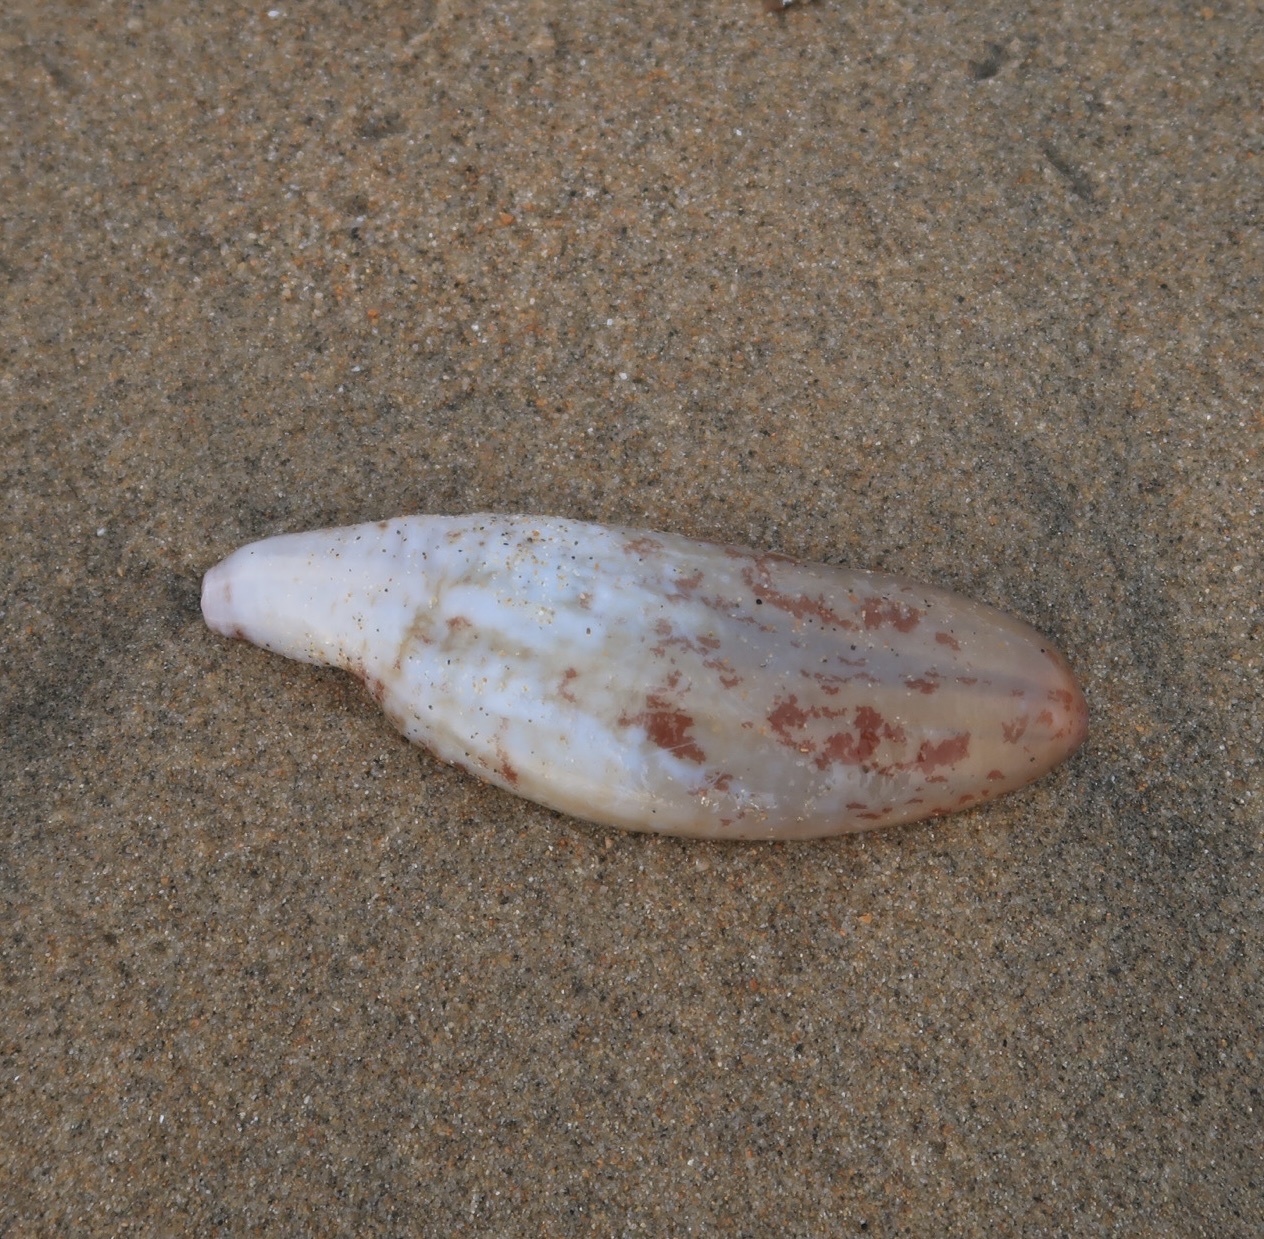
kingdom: Animalia
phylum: Echinodermata
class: Holothuroidea
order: Molpadida
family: Caudinidae
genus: Caudina
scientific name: Caudina arenicola
